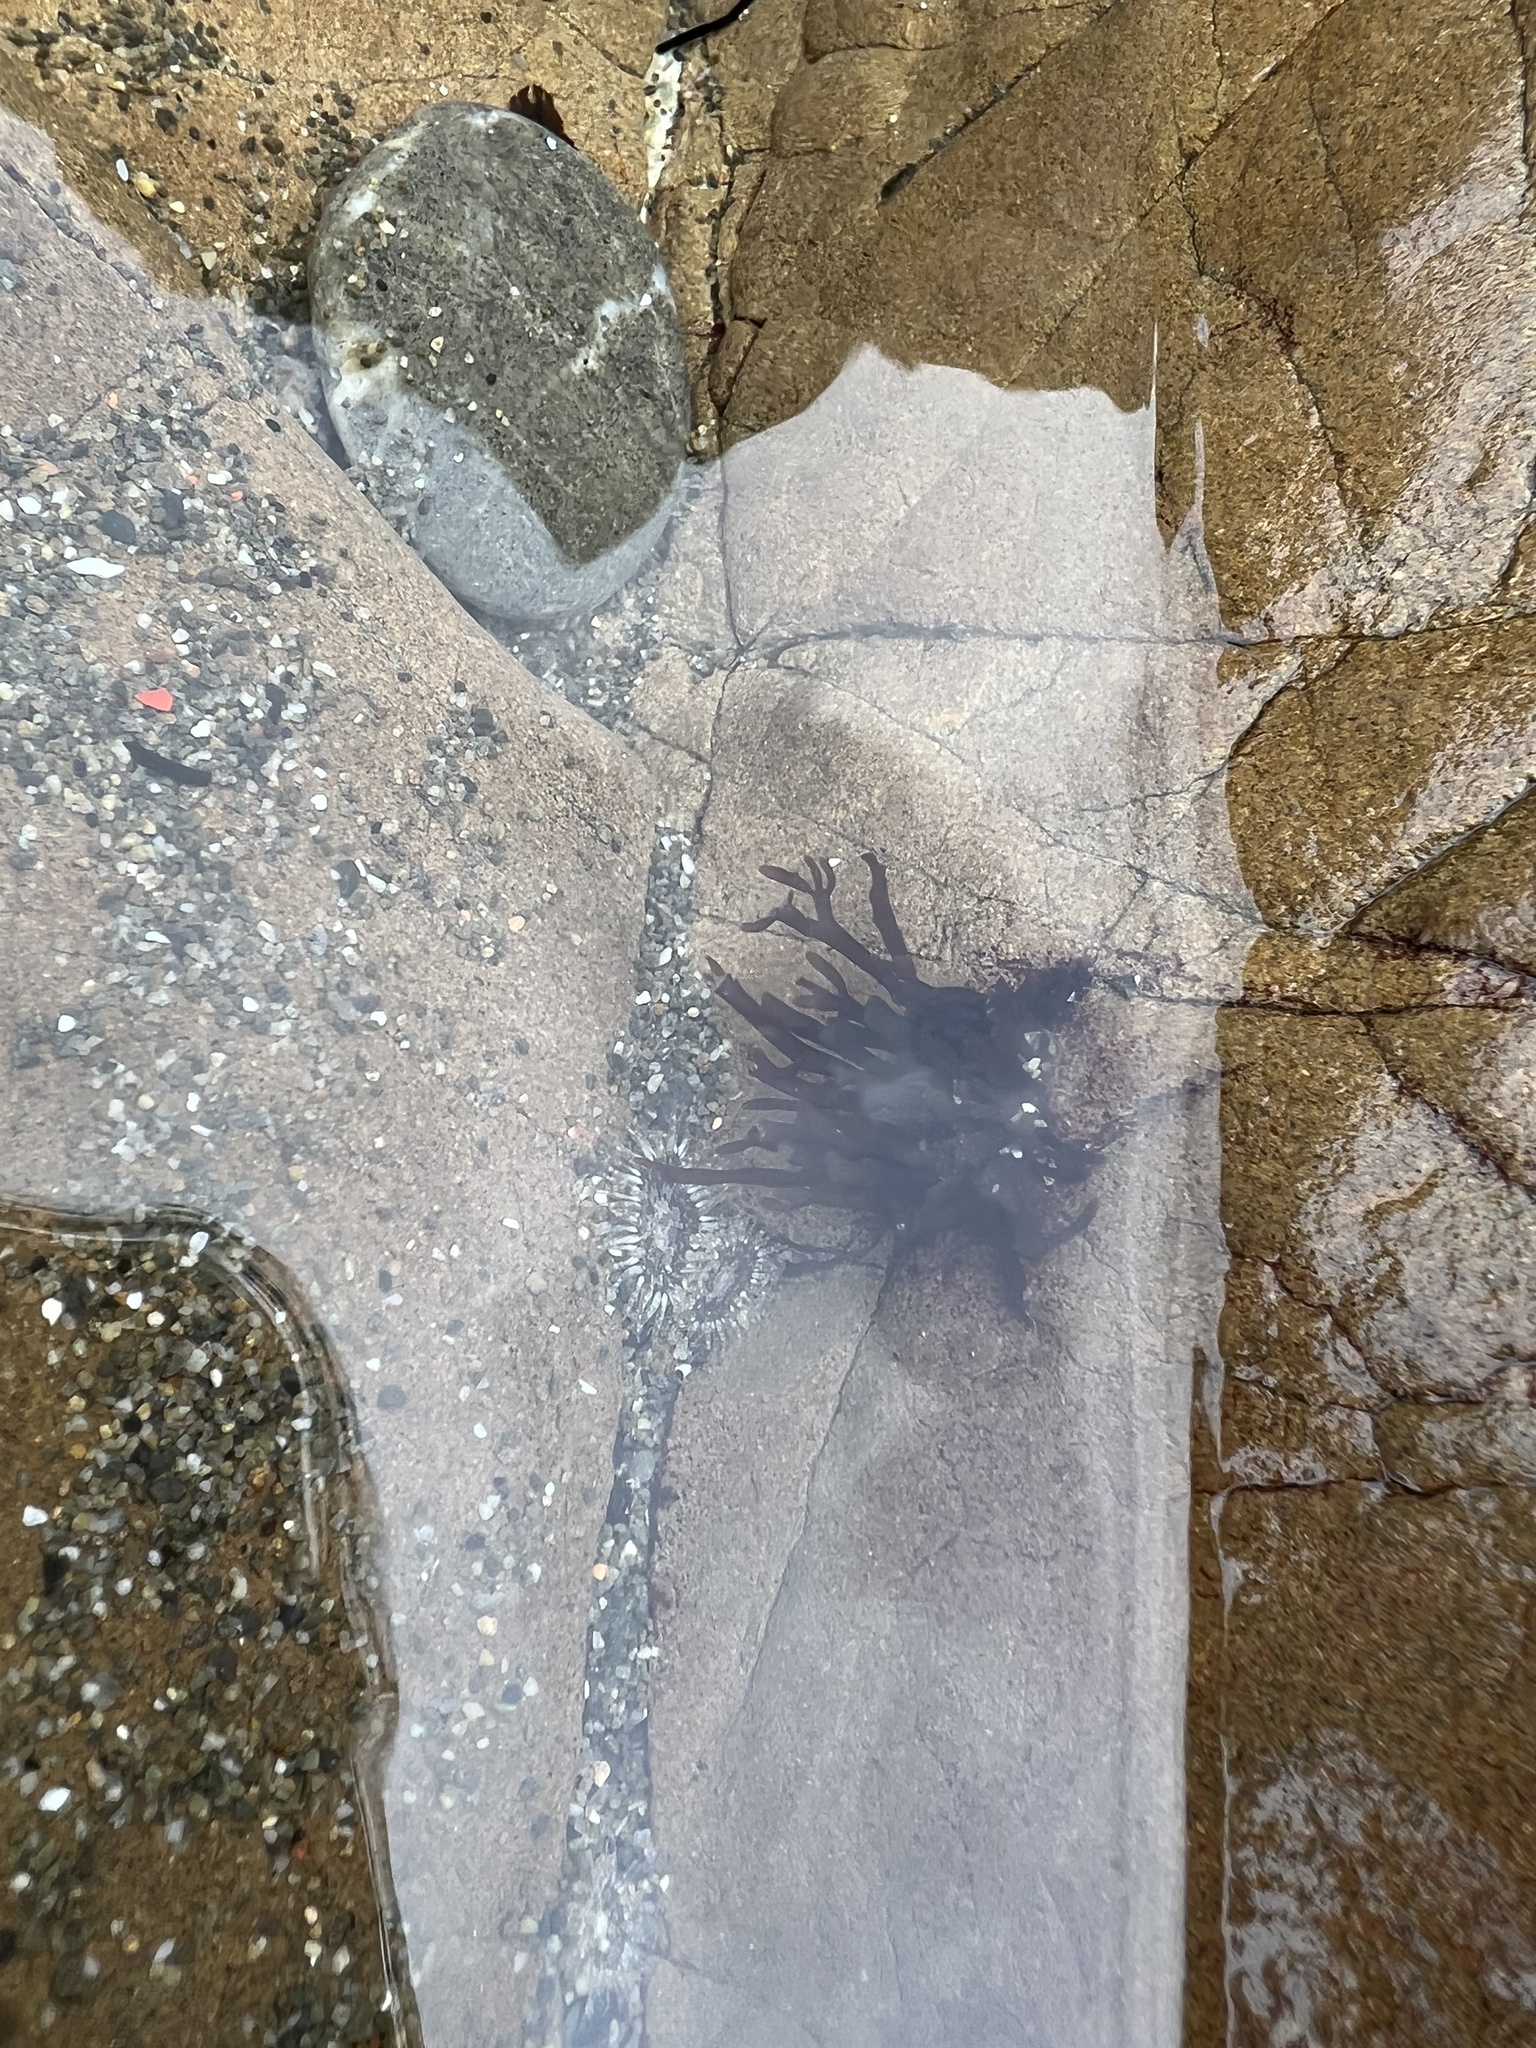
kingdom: Animalia
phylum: Cnidaria
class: Anthozoa
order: Actiniaria
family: Actiniidae
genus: Anthopleura
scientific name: Anthopleura hermaphroditica
